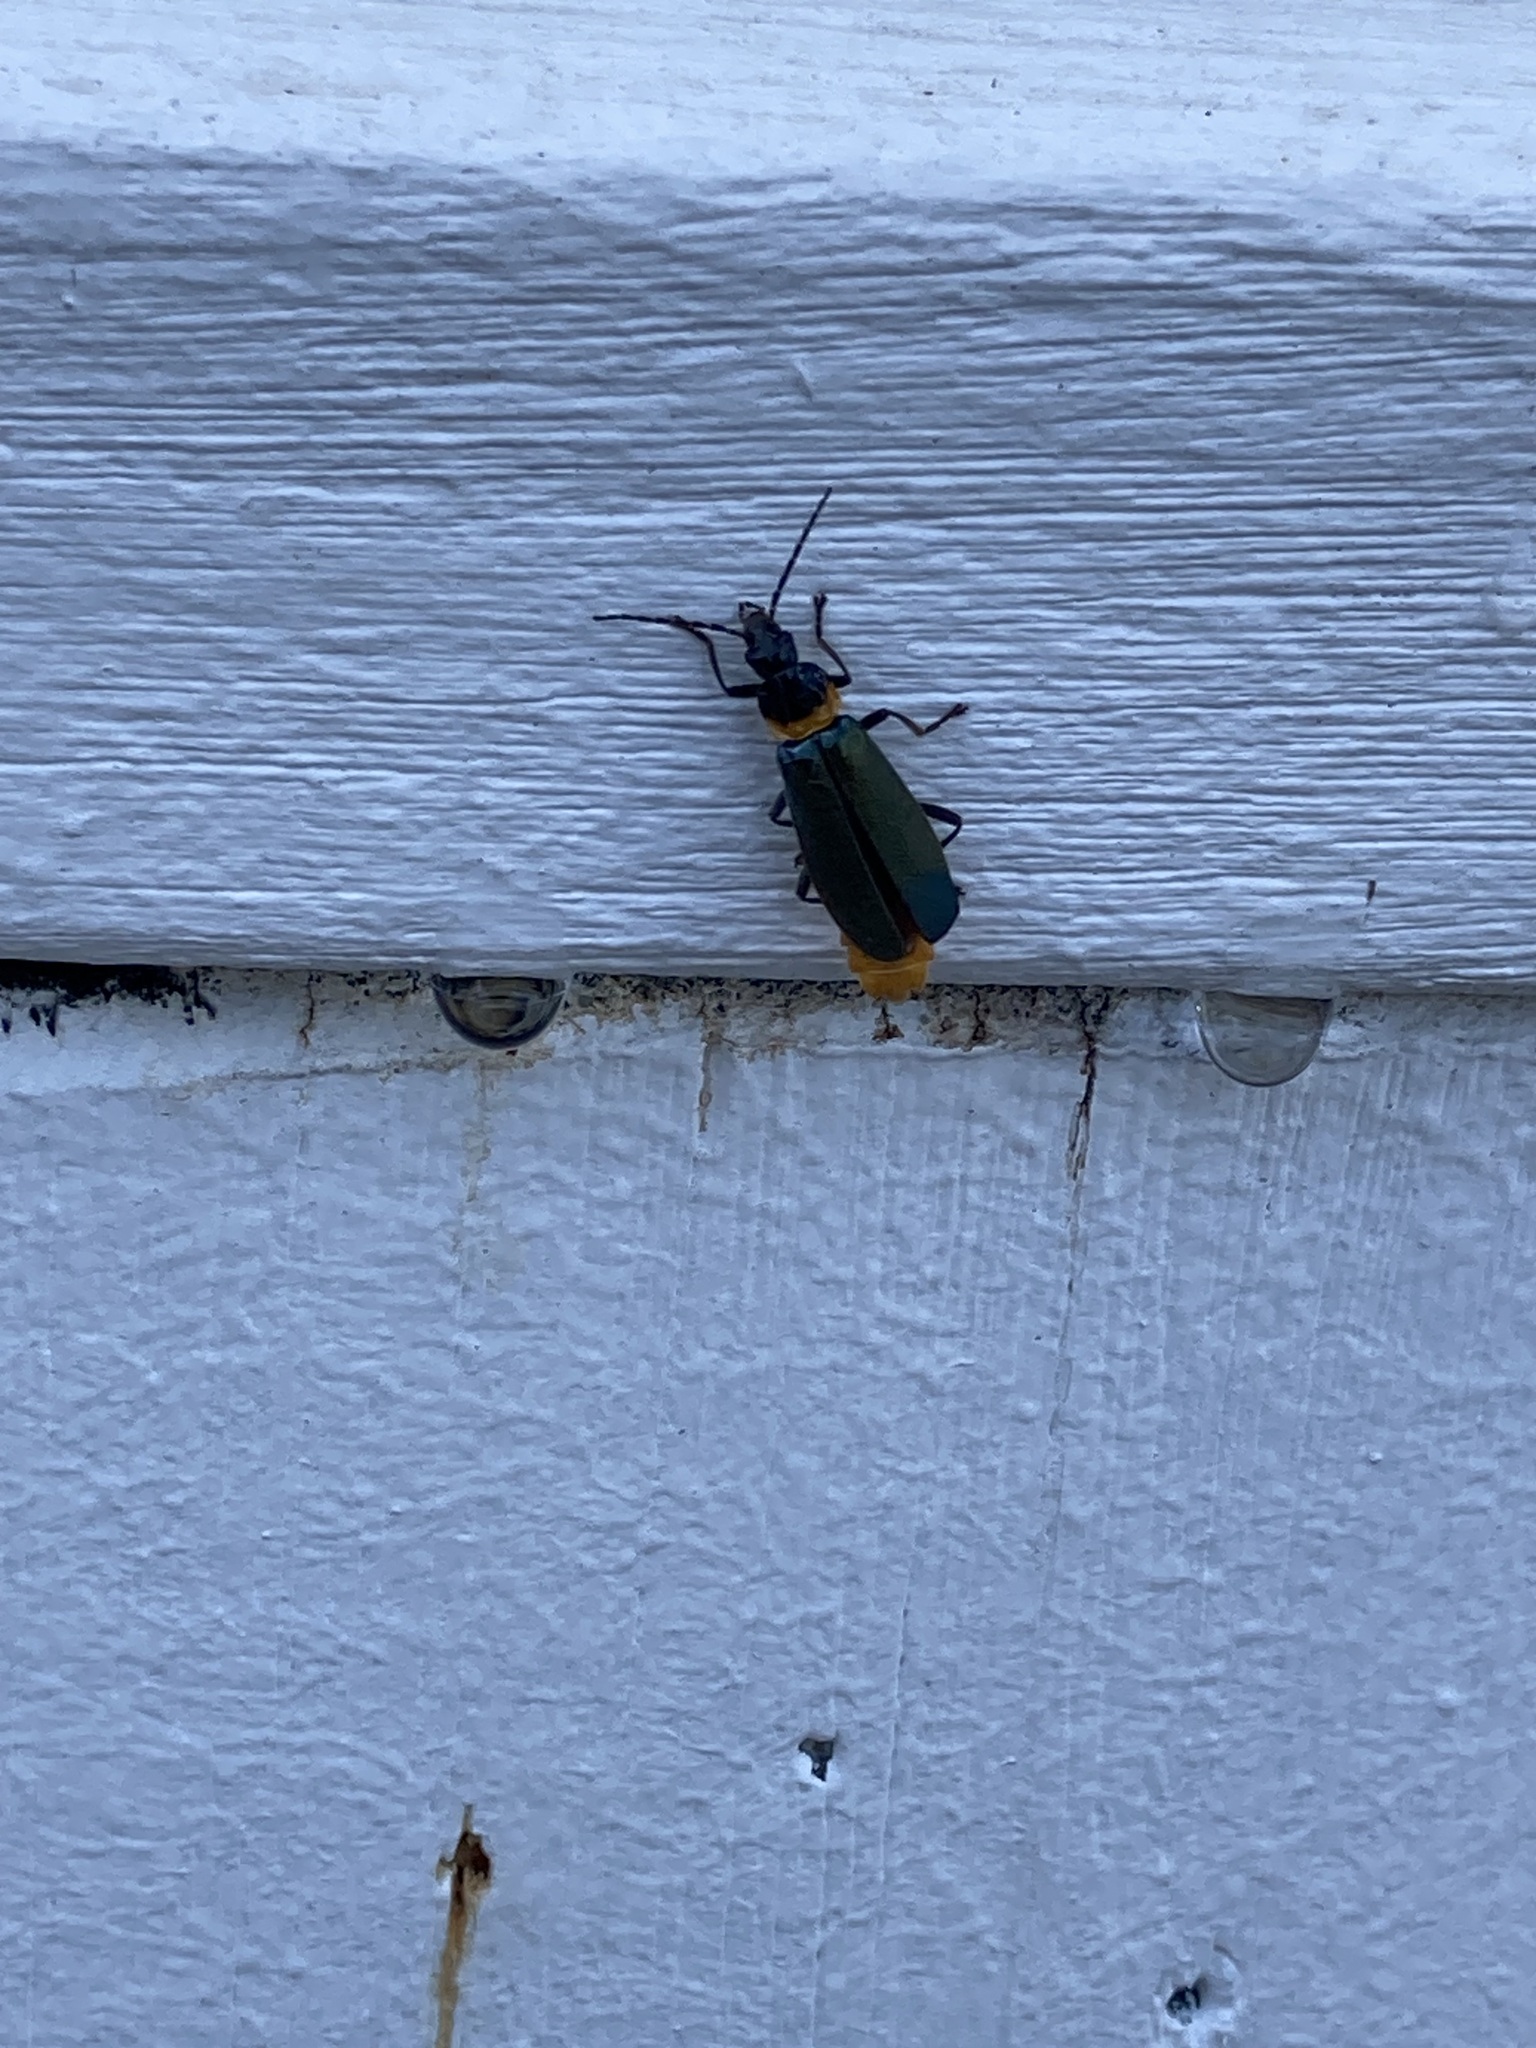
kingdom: Animalia
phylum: Arthropoda
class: Insecta
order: Coleoptera
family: Cantharidae
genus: Chauliognathus
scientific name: Chauliognathus
